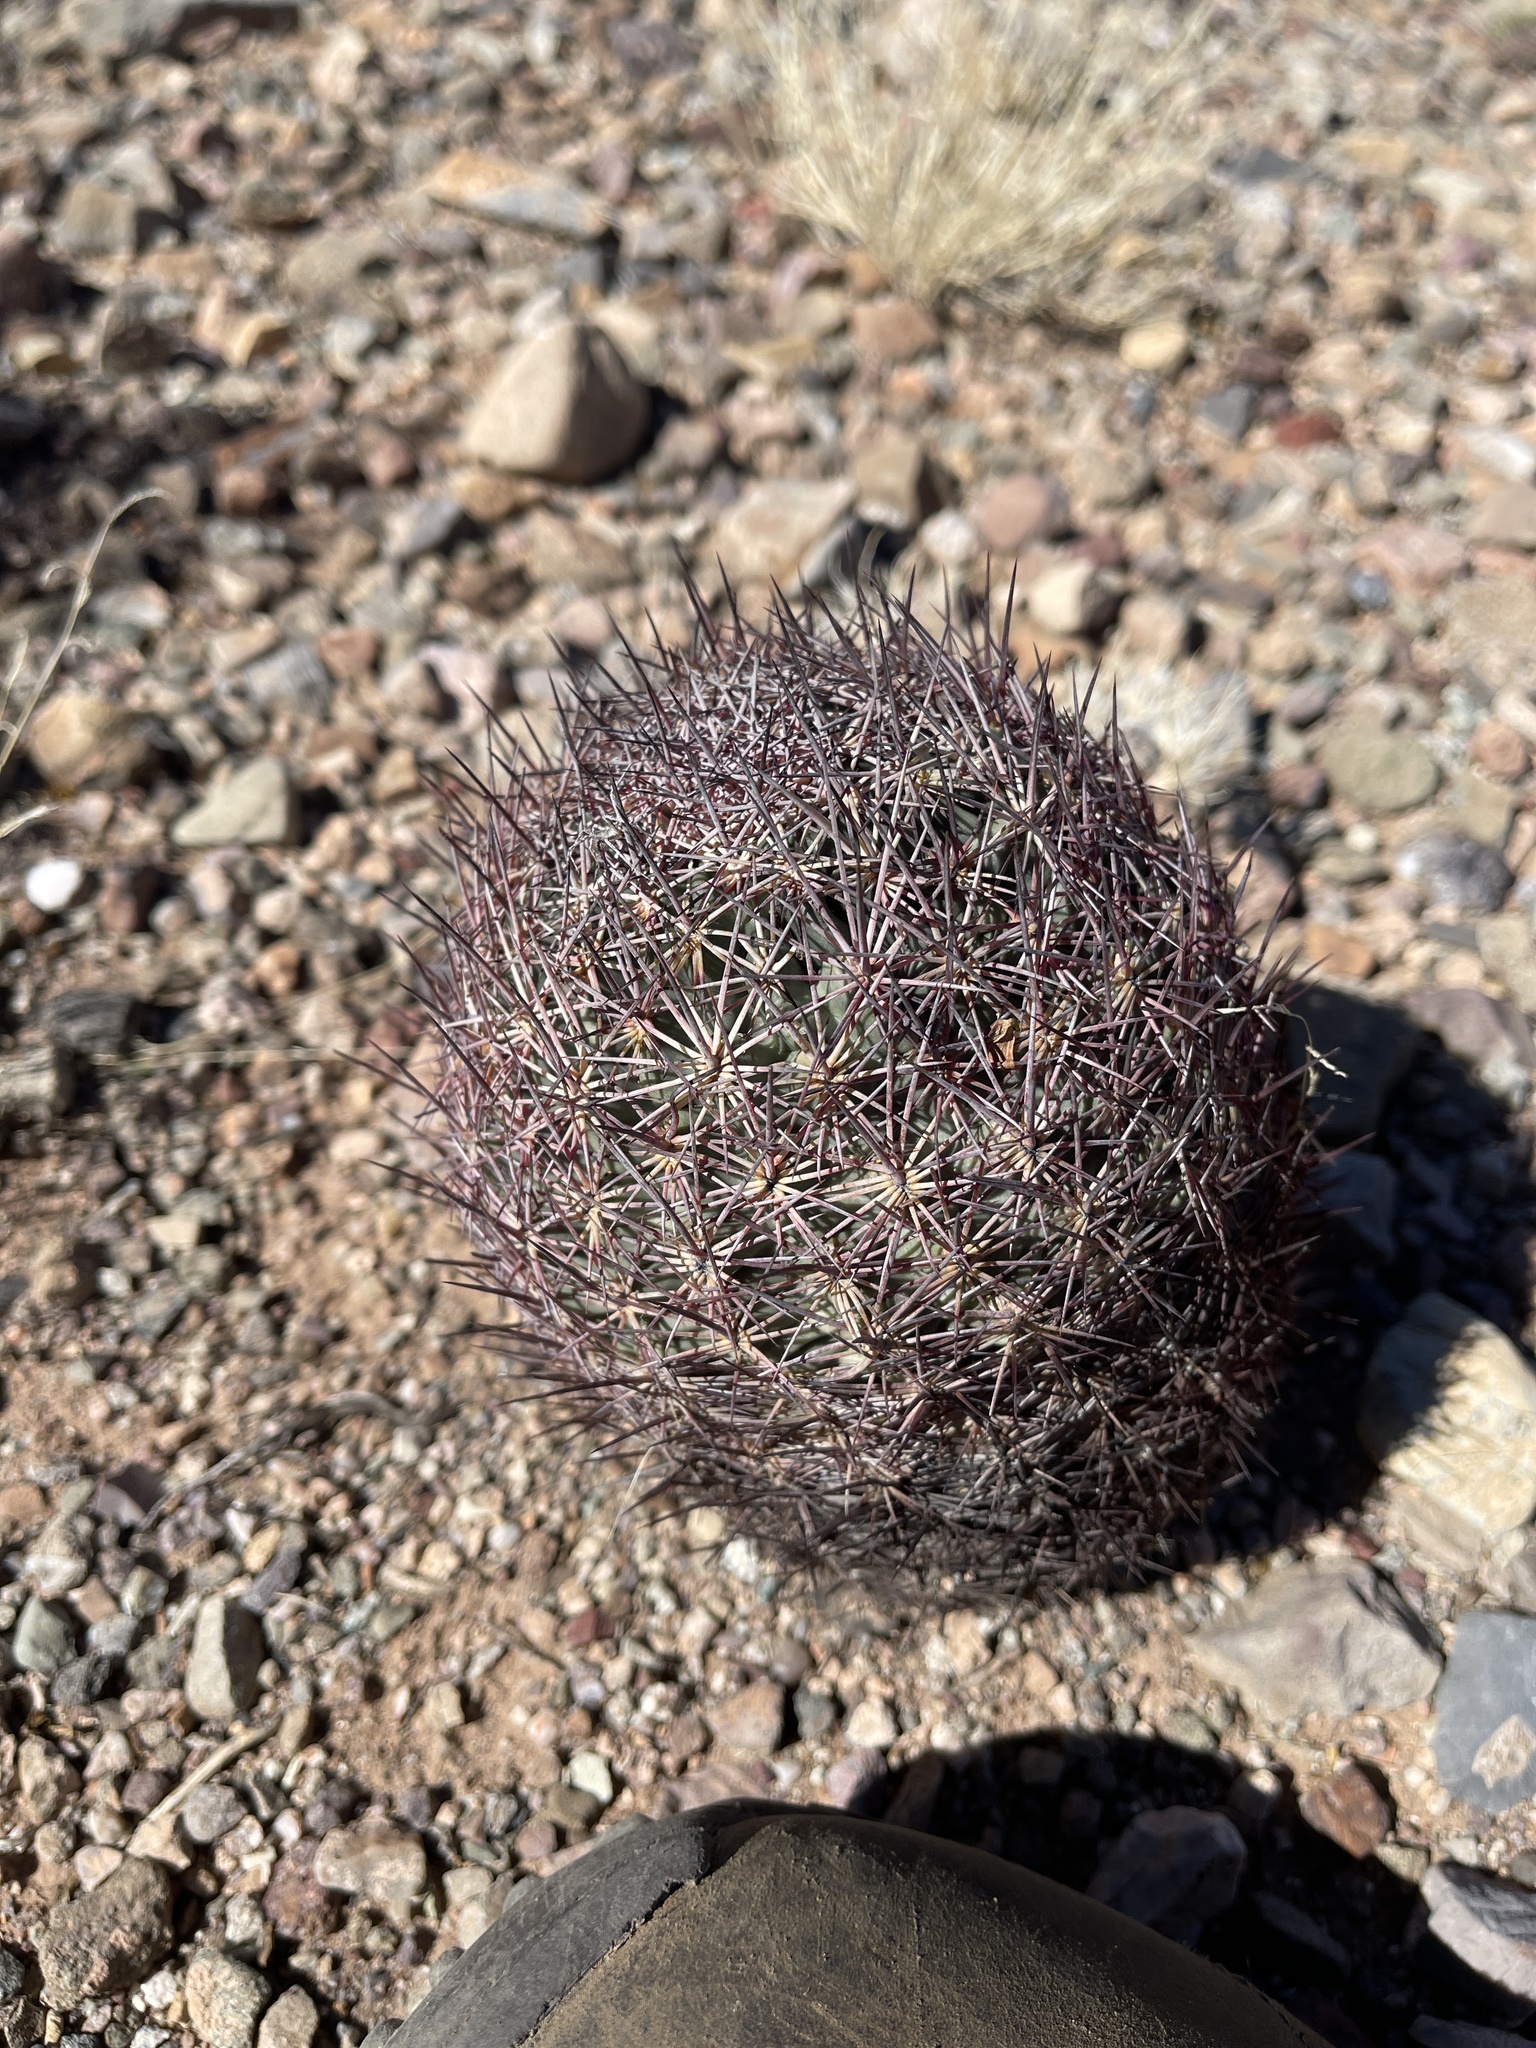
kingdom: Plantae
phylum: Tracheophyta
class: Magnoliopsida
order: Caryophyllales
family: Cactaceae
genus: Sclerocactus
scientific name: Sclerocactus johnsonii
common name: Eight-spine fishhook cactus
